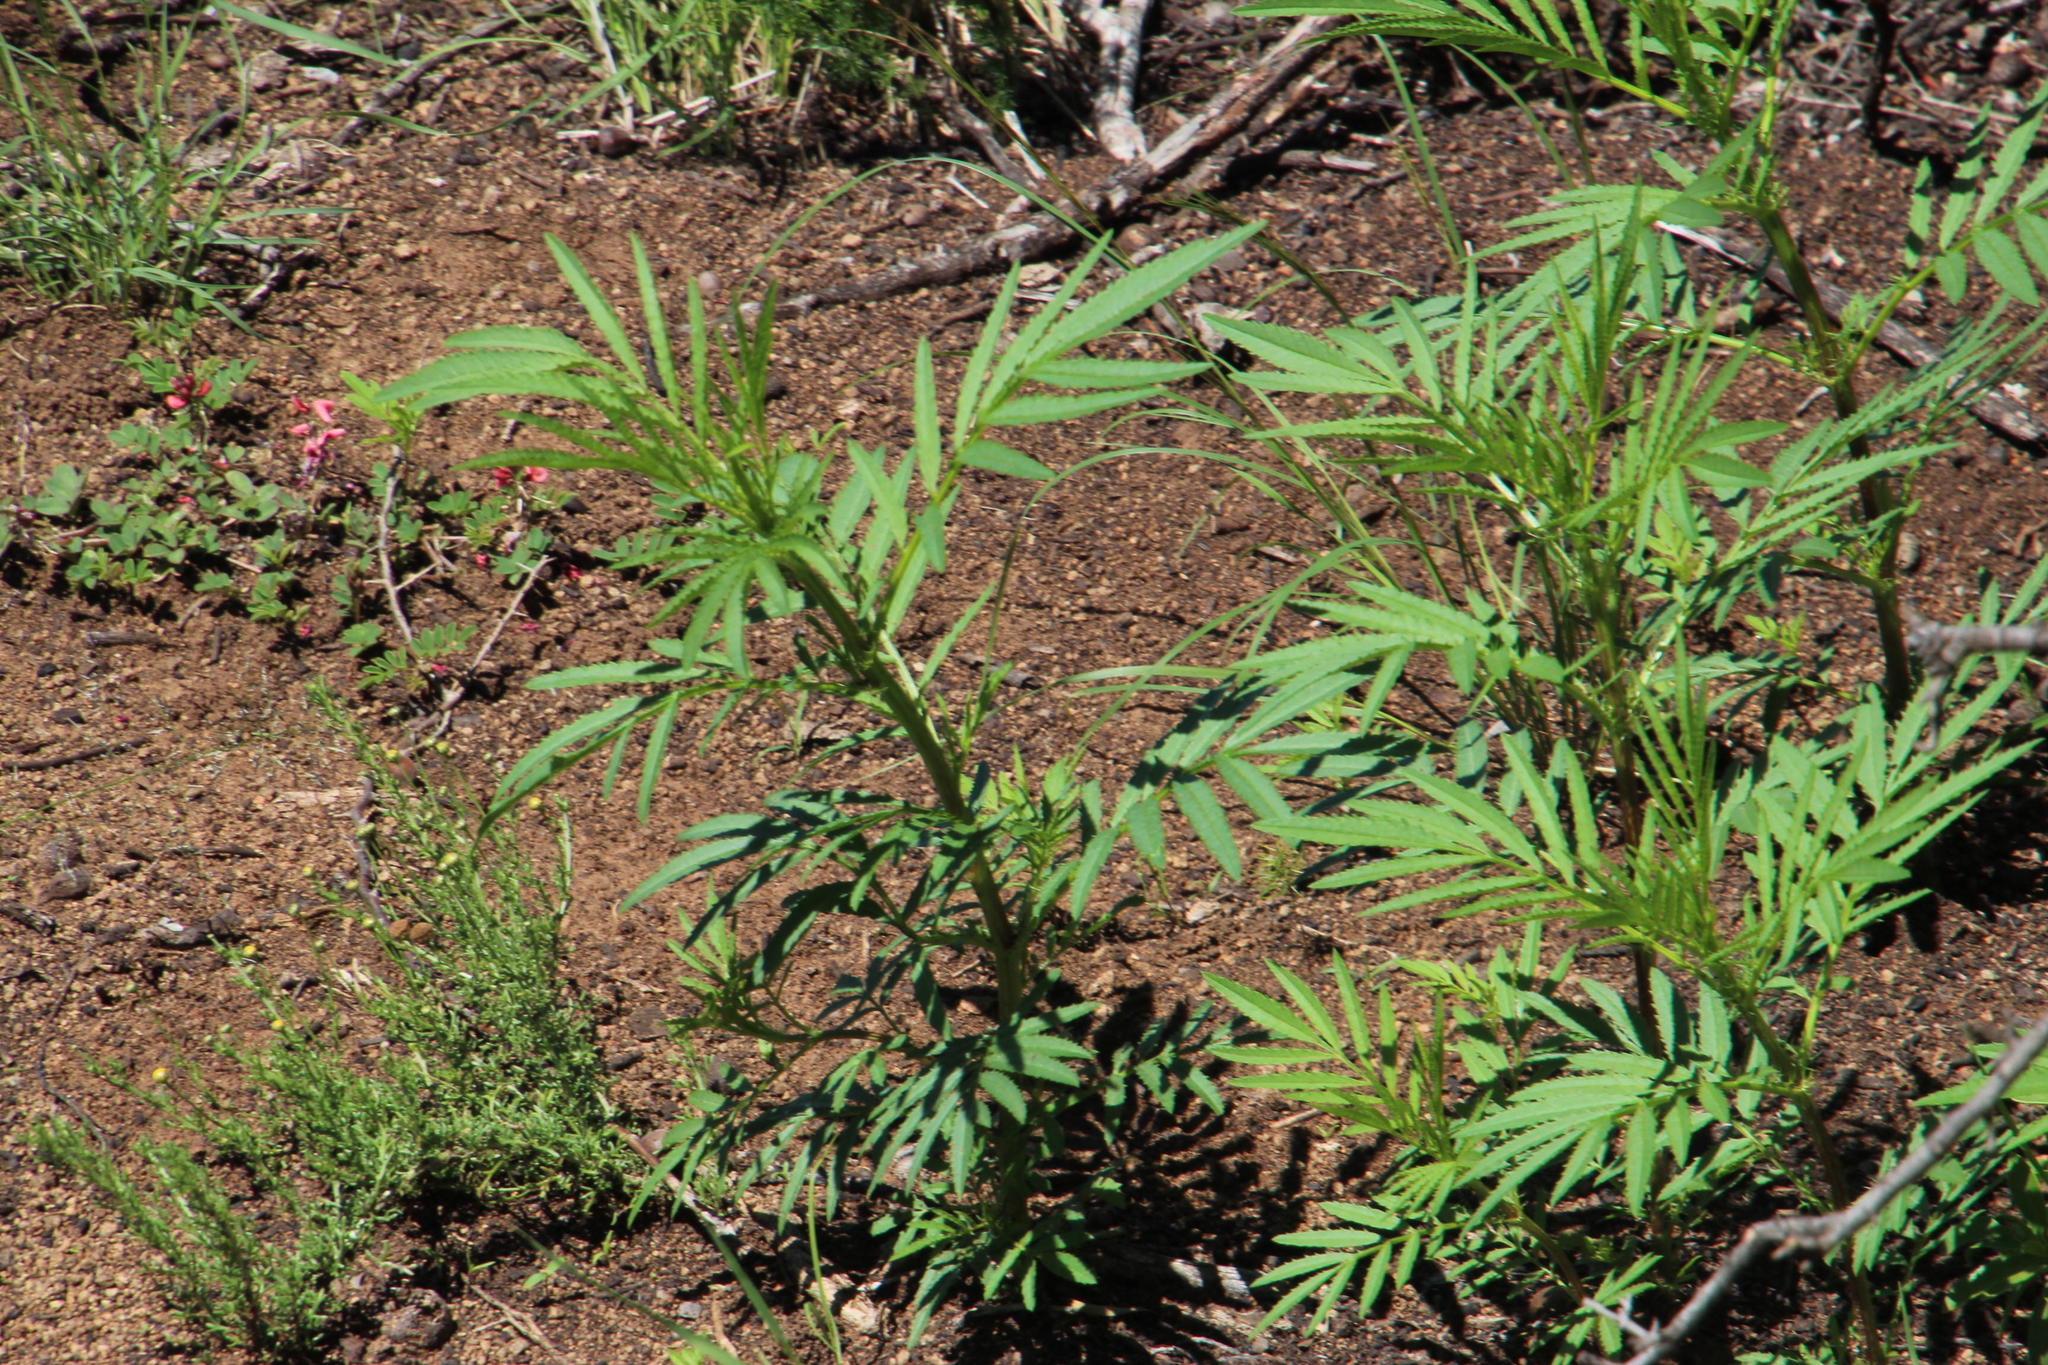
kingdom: Plantae
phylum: Tracheophyta
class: Magnoliopsida
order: Asterales
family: Asteraceae
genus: Tagetes
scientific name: Tagetes minuta
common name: Muster john henry
